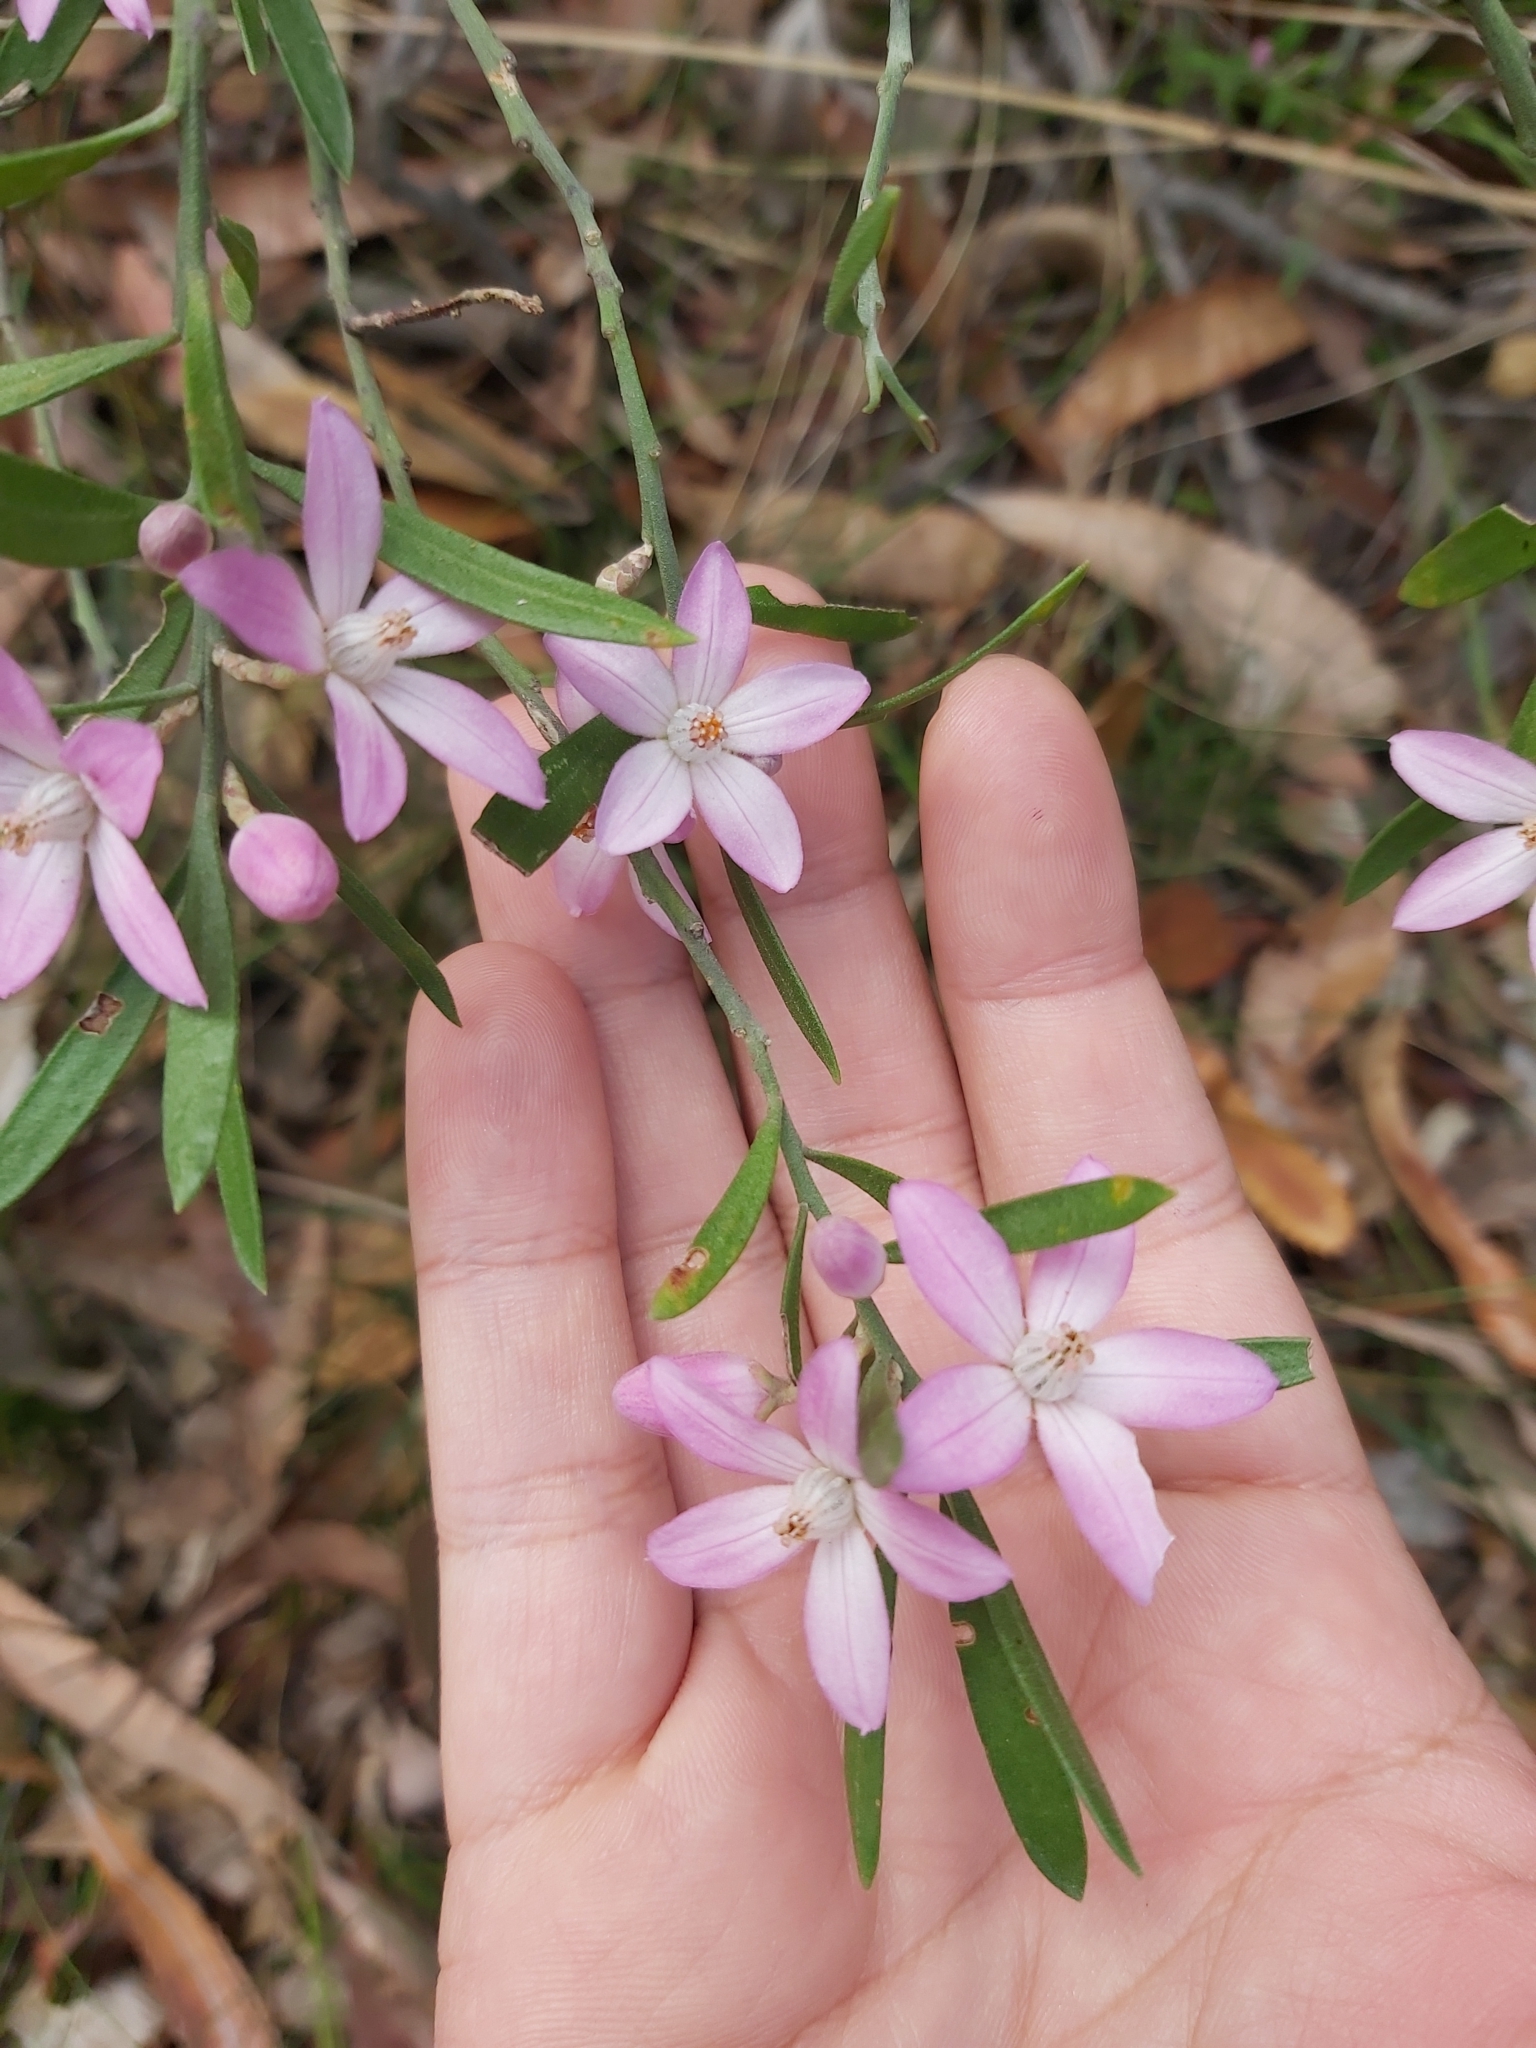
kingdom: Plantae
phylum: Tracheophyta
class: Magnoliopsida
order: Sapindales
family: Rutaceae
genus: Eriostemon
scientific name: Eriostemon australasius
